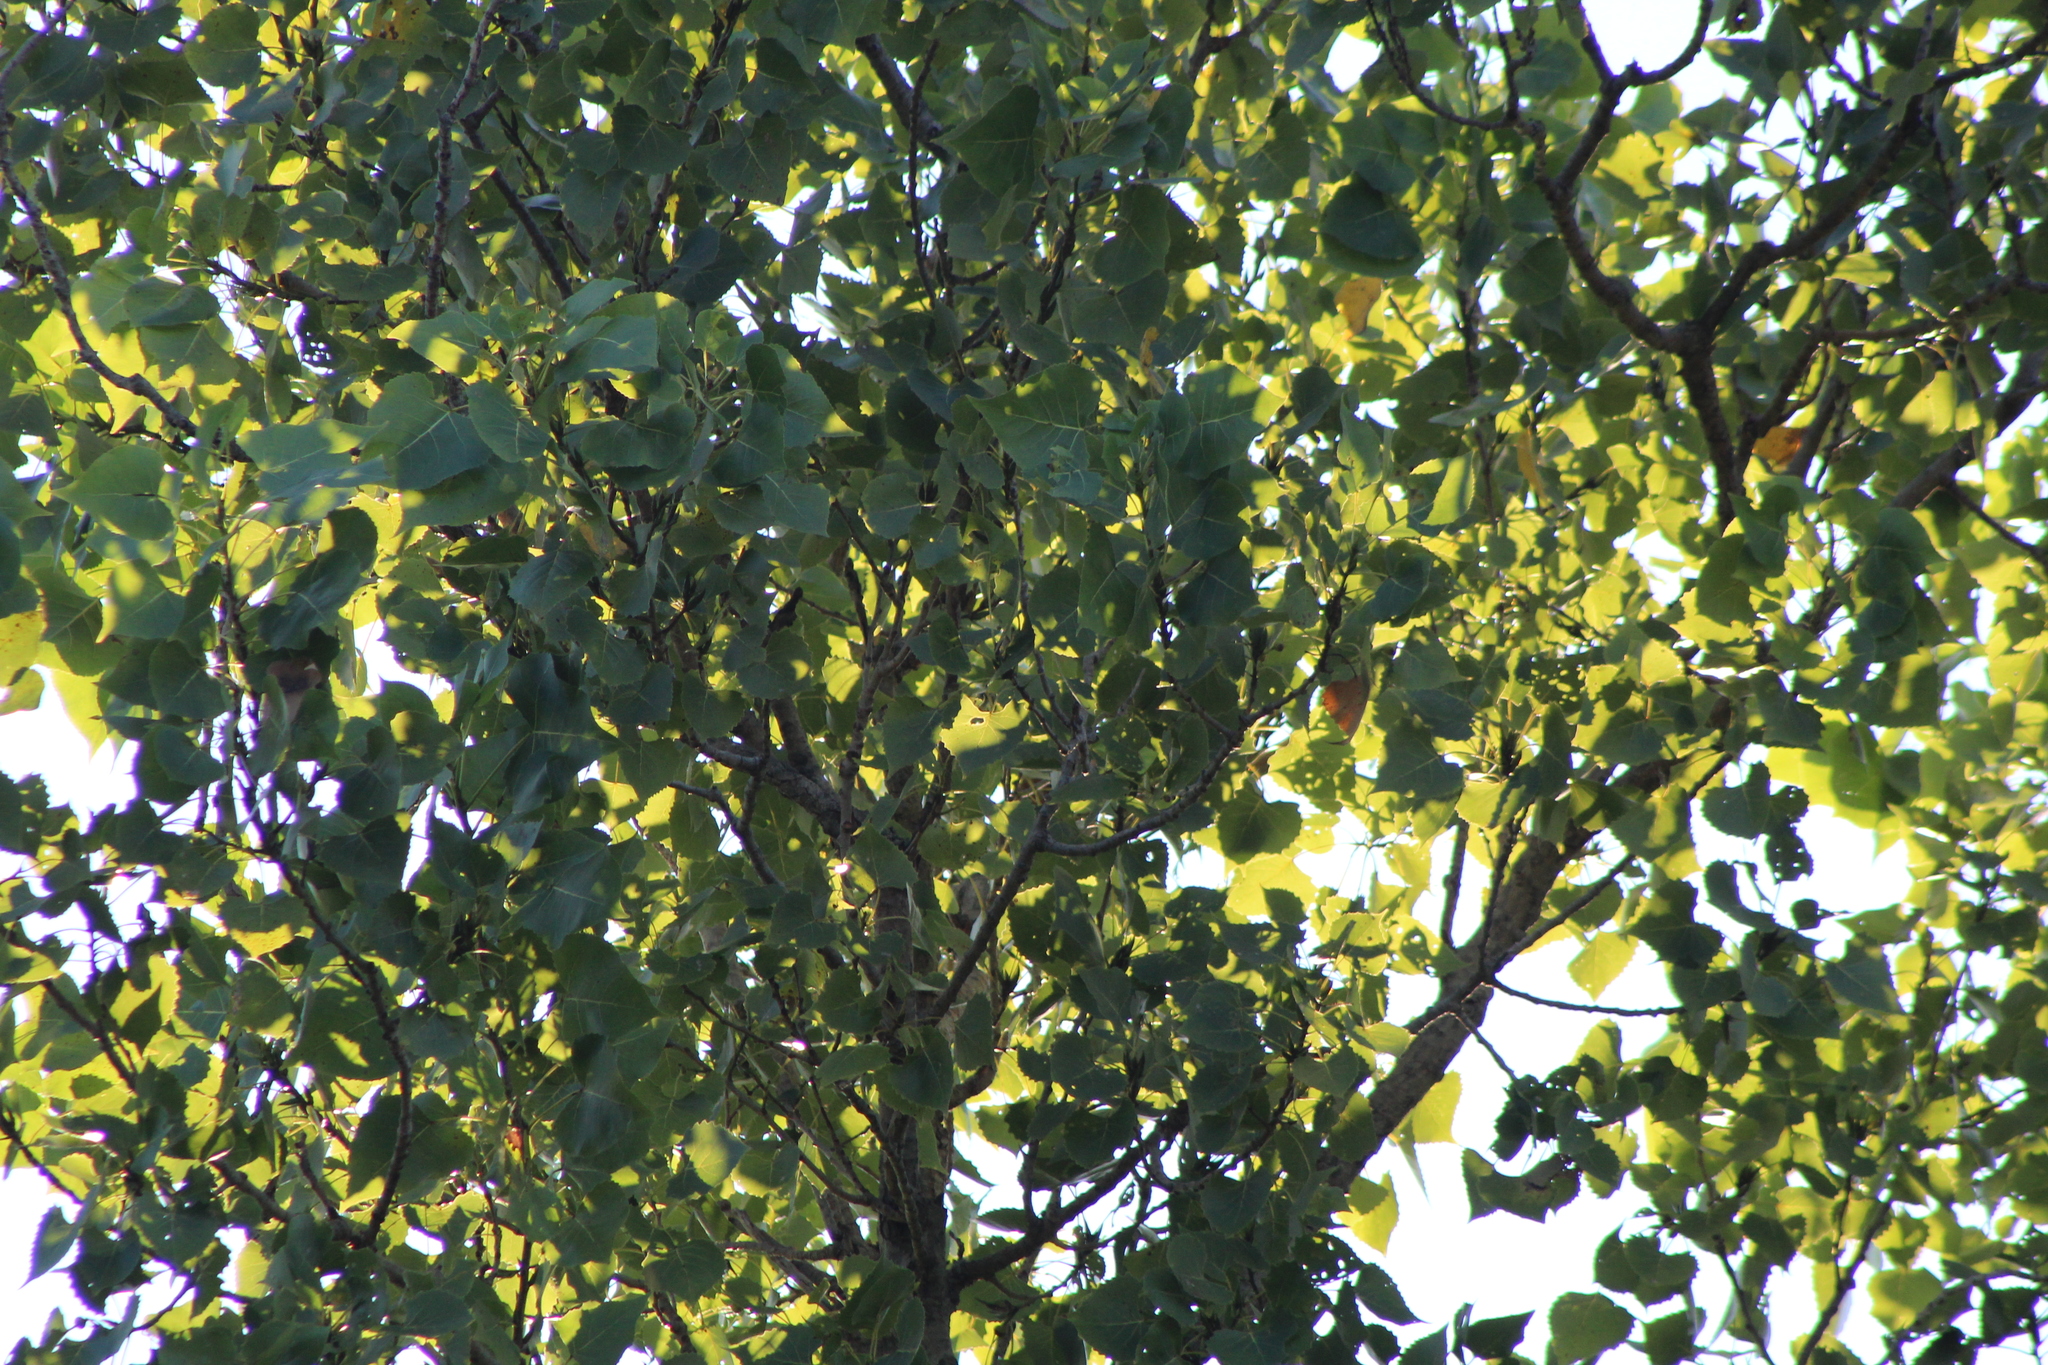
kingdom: Plantae
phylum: Tracheophyta
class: Magnoliopsida
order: Malpighiales
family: Salicaceae
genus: Populus
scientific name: Populus deltoides
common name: Eastern cottonwood
